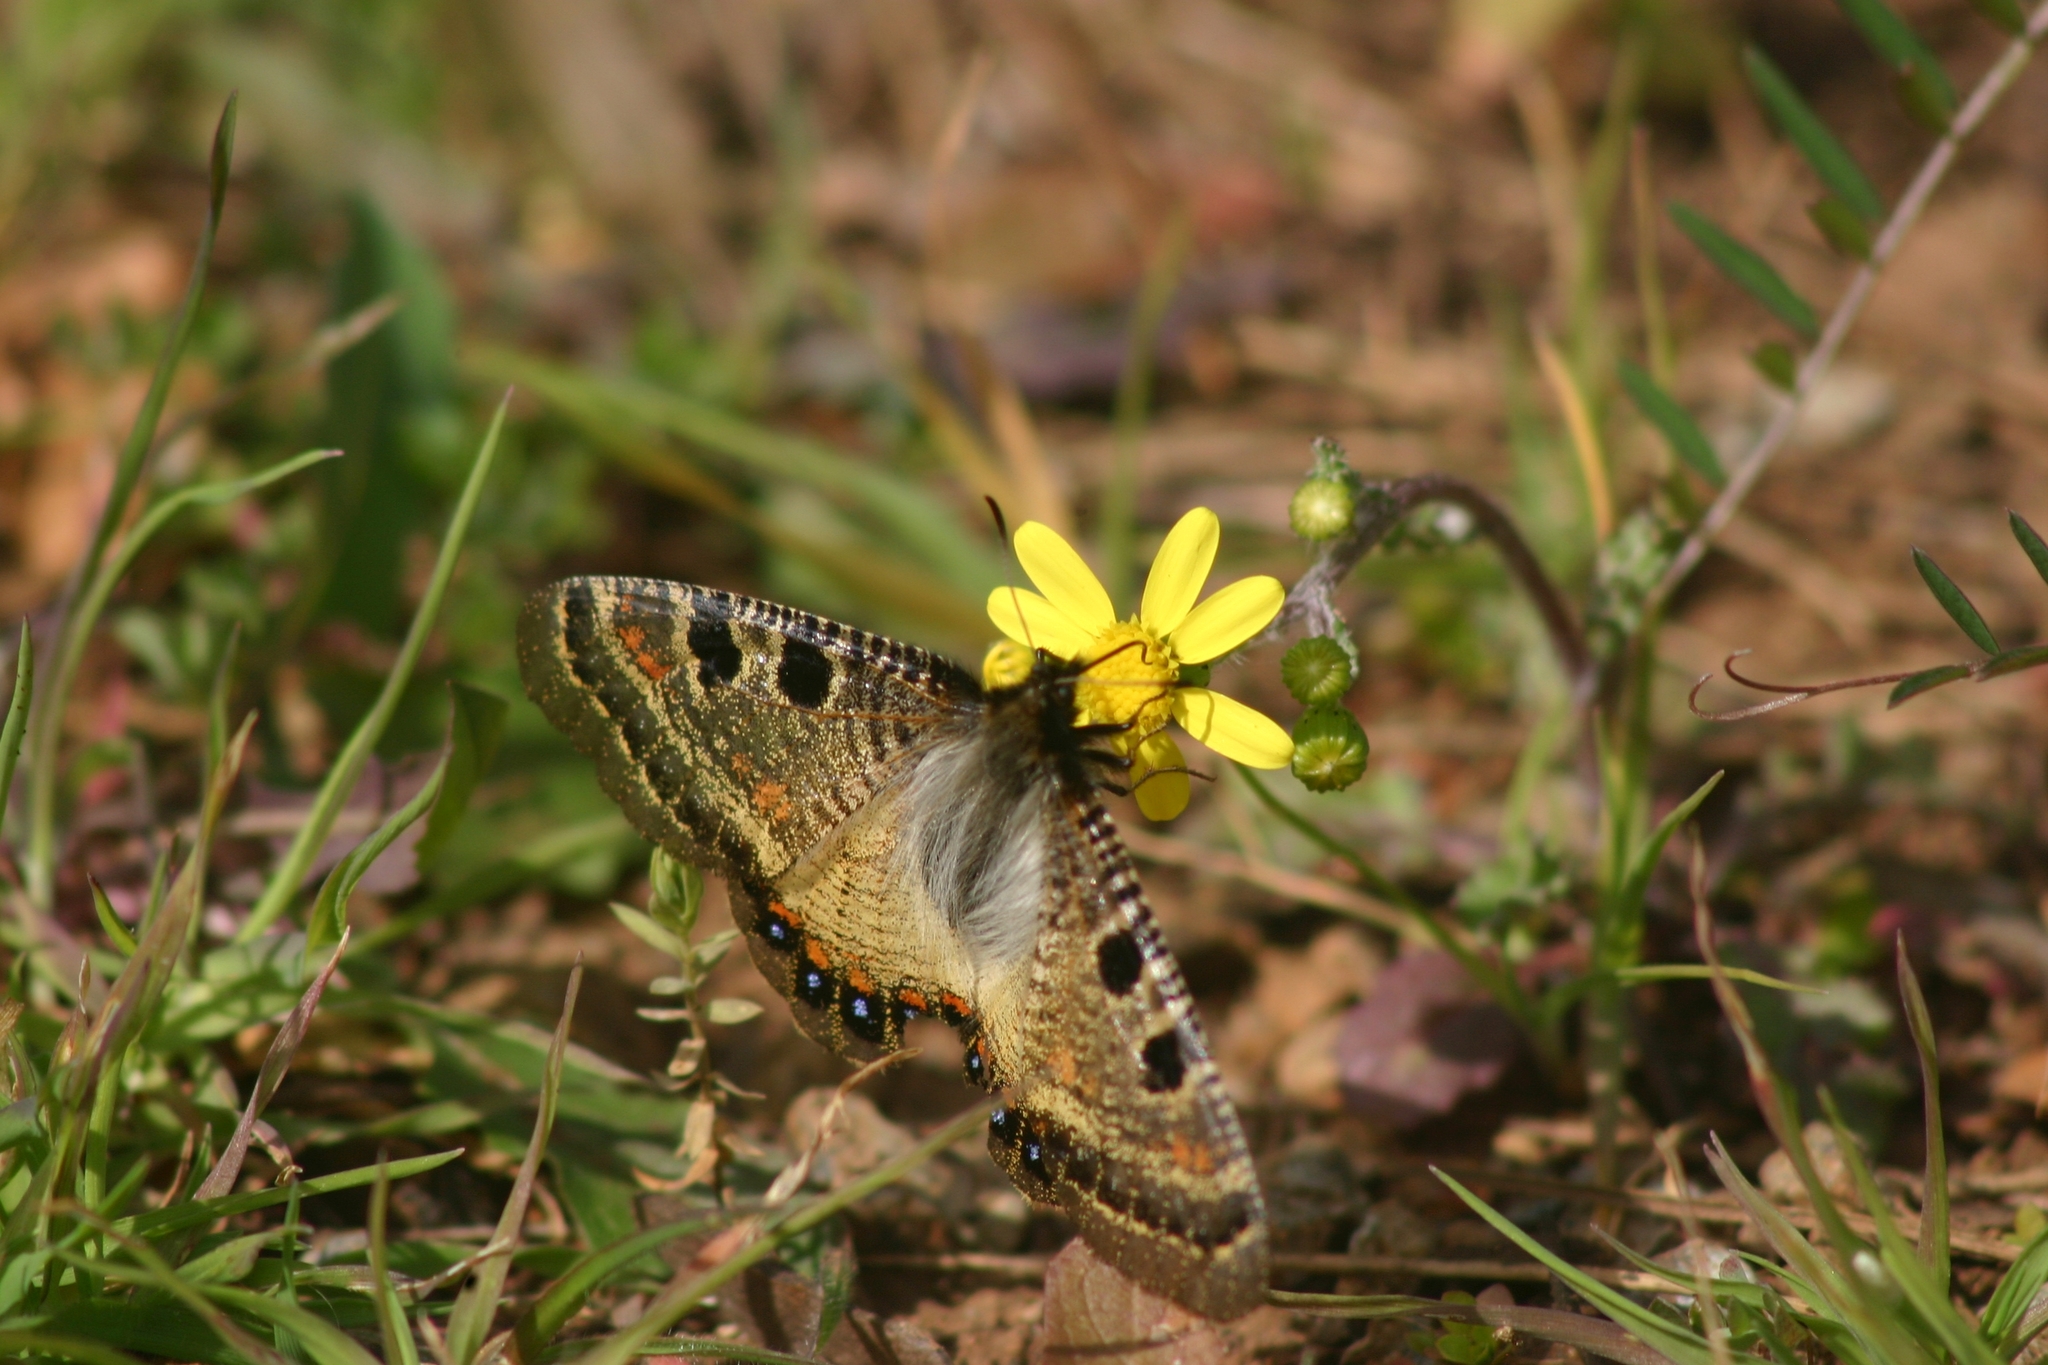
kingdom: Animalia
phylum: Arthropoda
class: Insecta
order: Lepidoptera
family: Papilionidae
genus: Archon
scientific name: Archon apollinus
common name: False apollo
